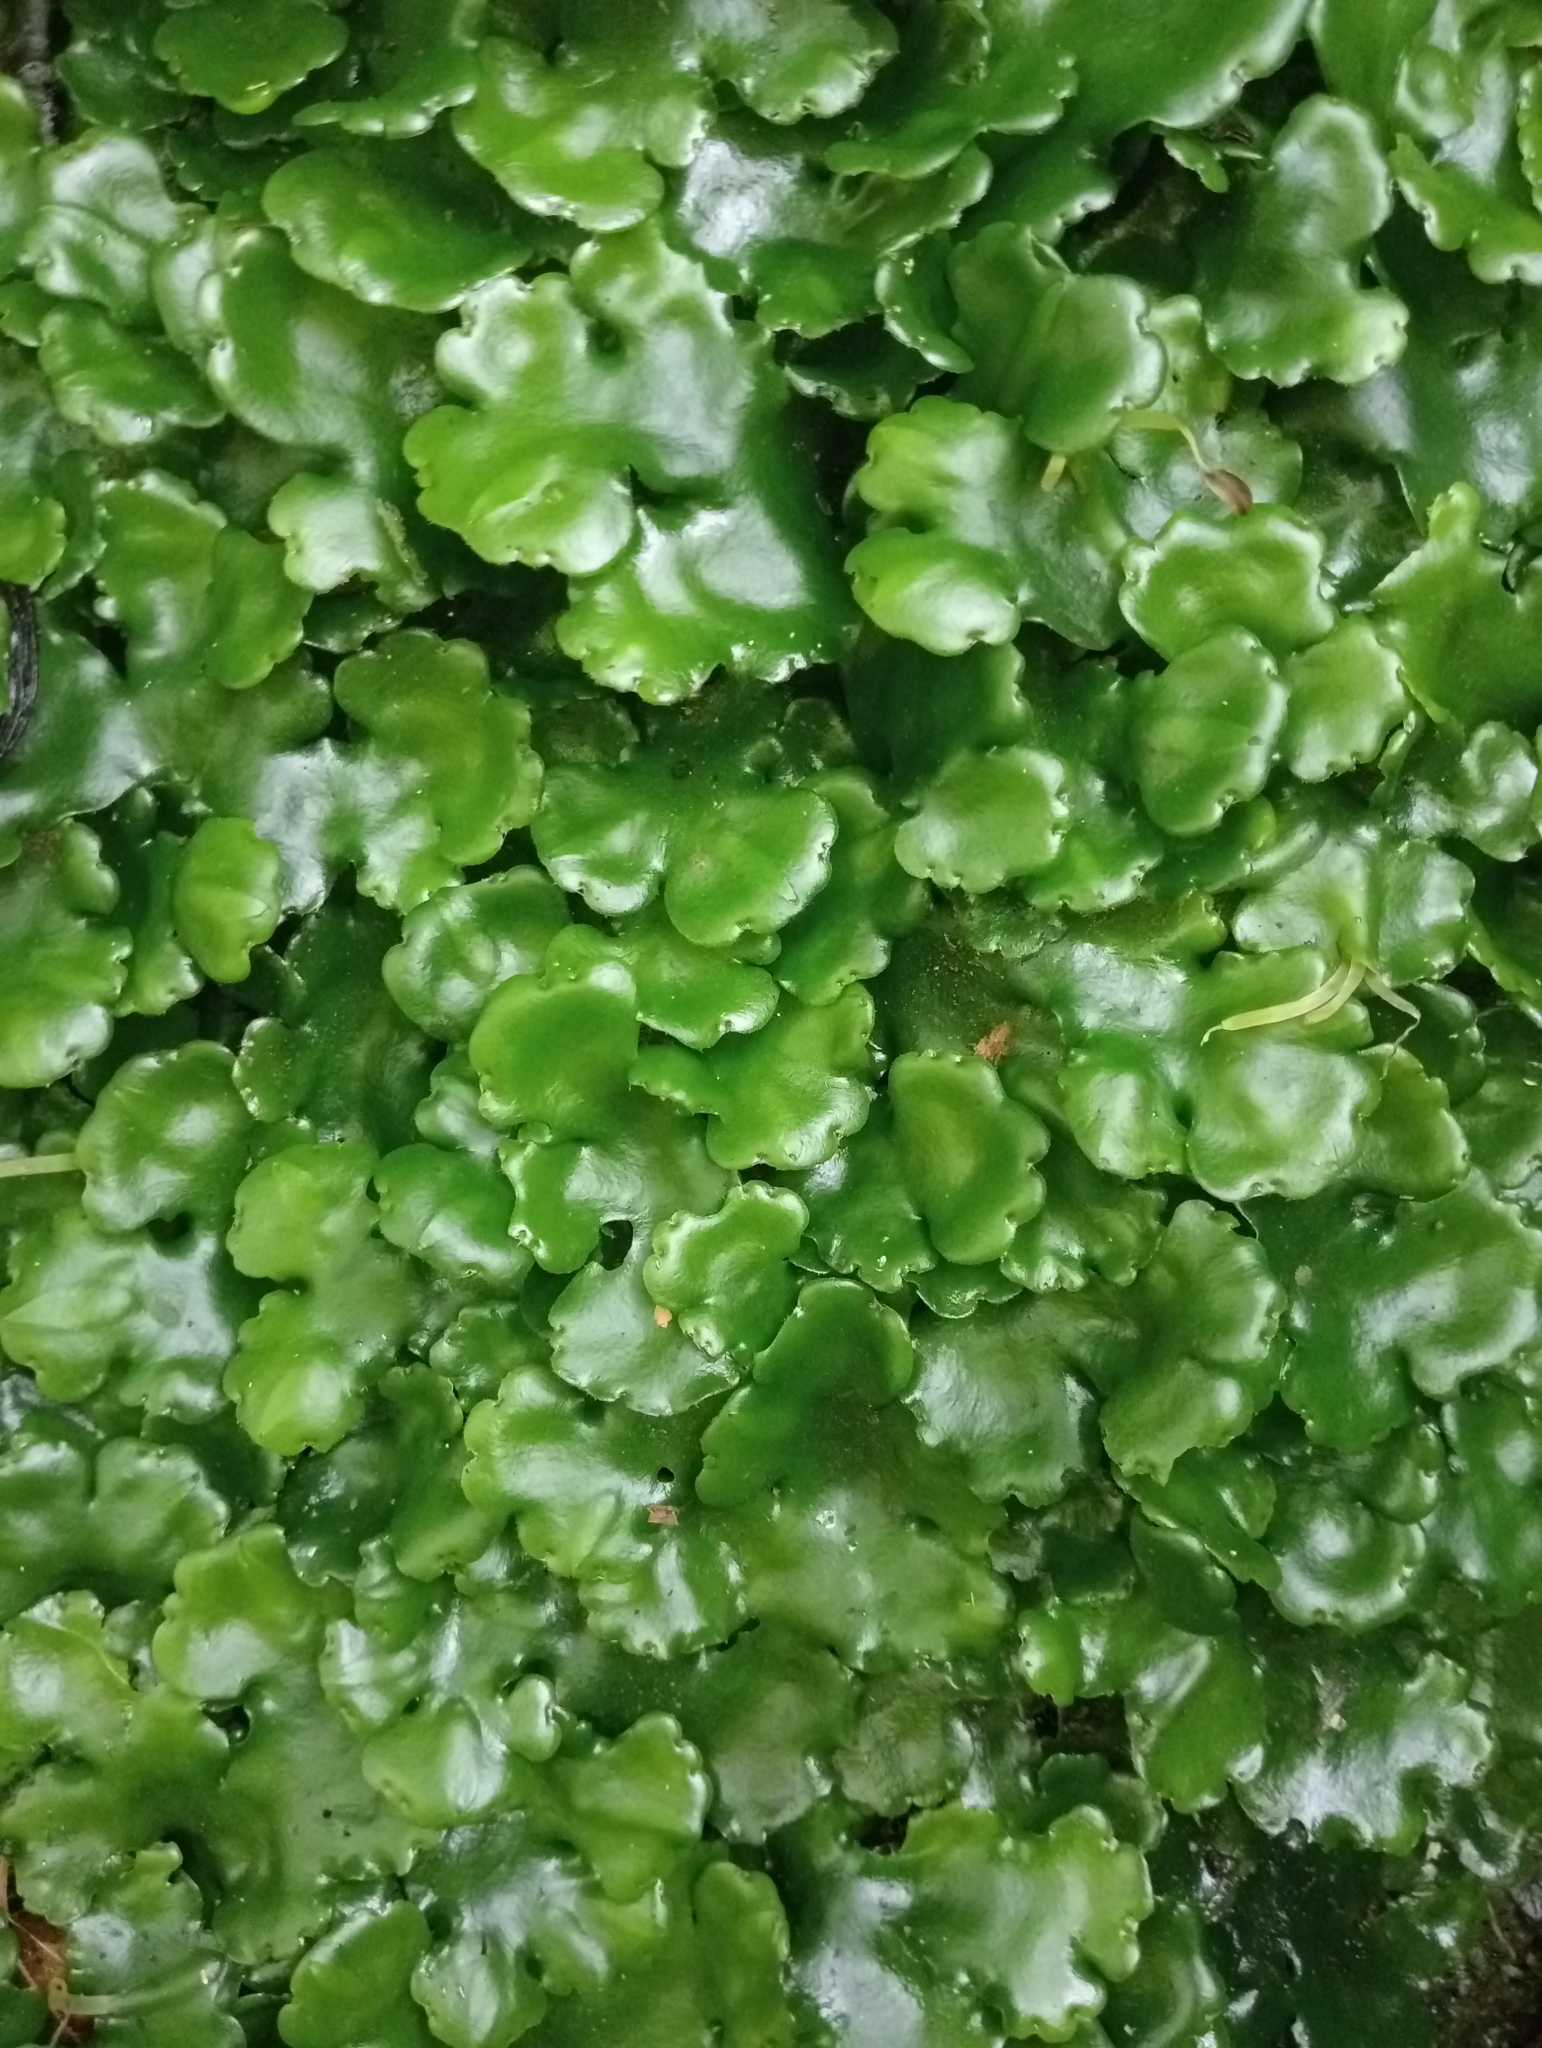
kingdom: Plantae
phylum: Marchantiophyta
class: Marchantiopsida
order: Marchantiales
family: Monocleaceae
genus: Monoclea
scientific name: Monoclea forsteri
